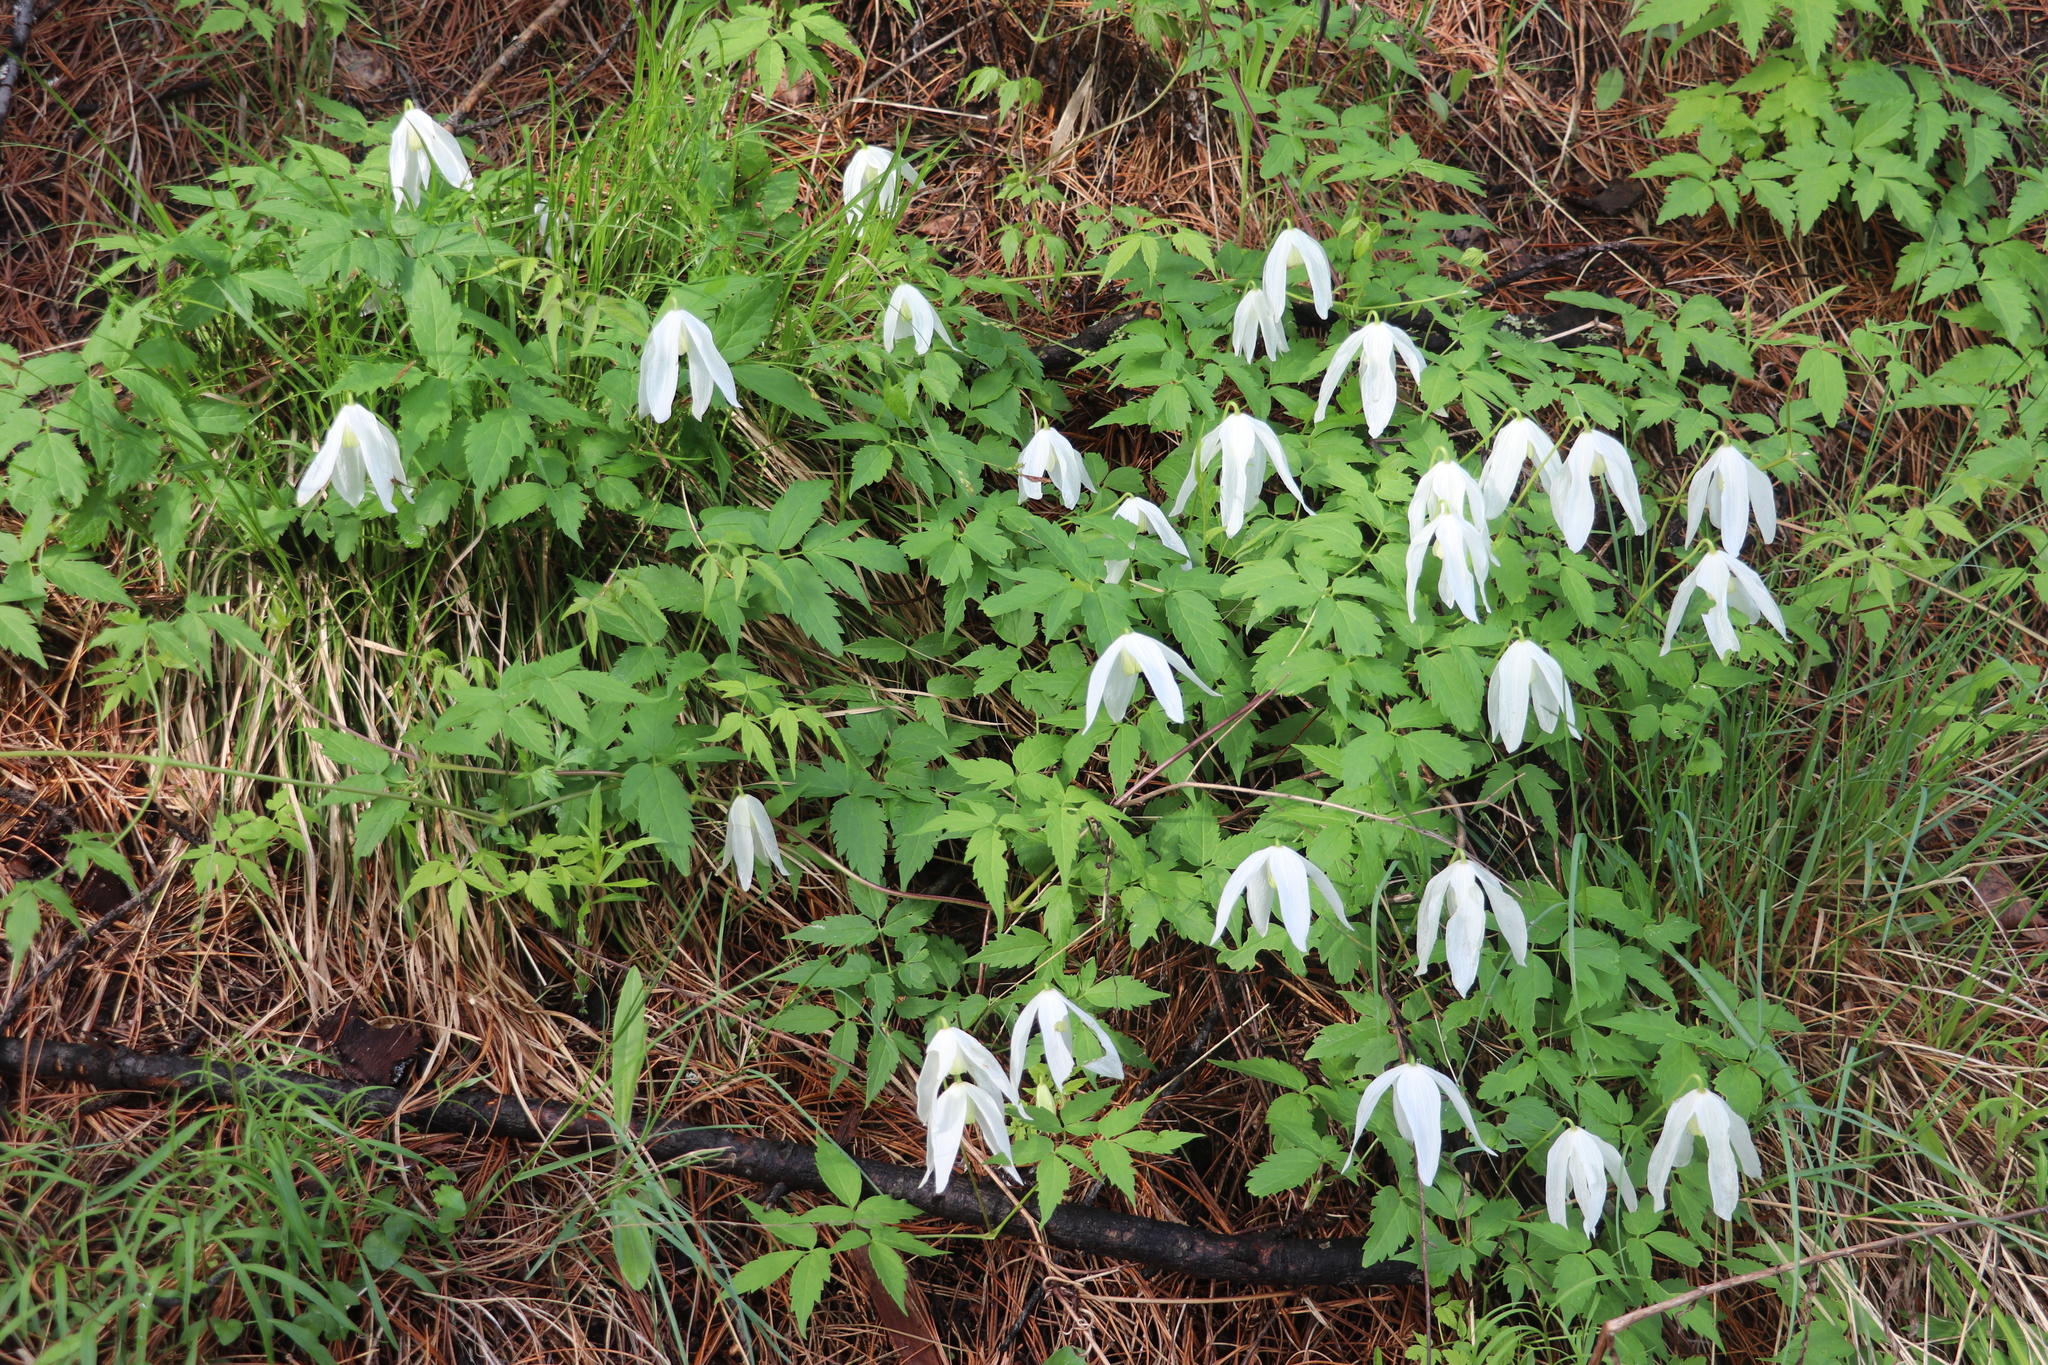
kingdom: Plantae
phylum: Tracheophyta
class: Magnoliopsida
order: Ranunculales
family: Ranunculaceae
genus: Clematis
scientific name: Clematis sibirica
